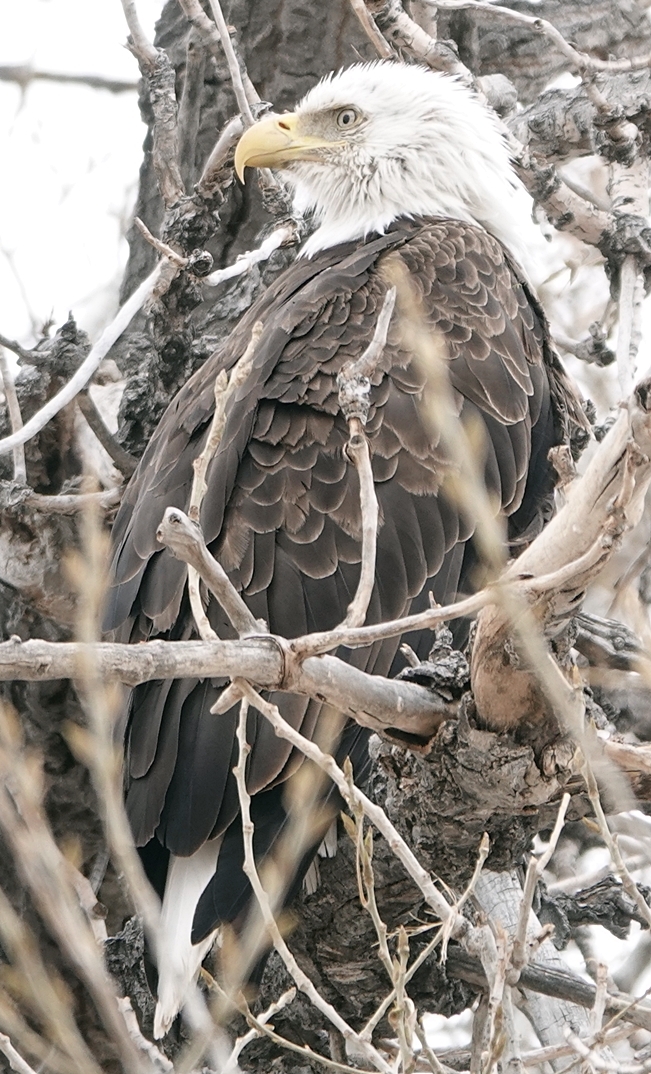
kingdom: Animalia
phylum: Chordata
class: Aves
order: Accipitriformes
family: Accipitridae
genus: Haliaeetus
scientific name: Haliaeetus leucocephalus
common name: Bald eagle
